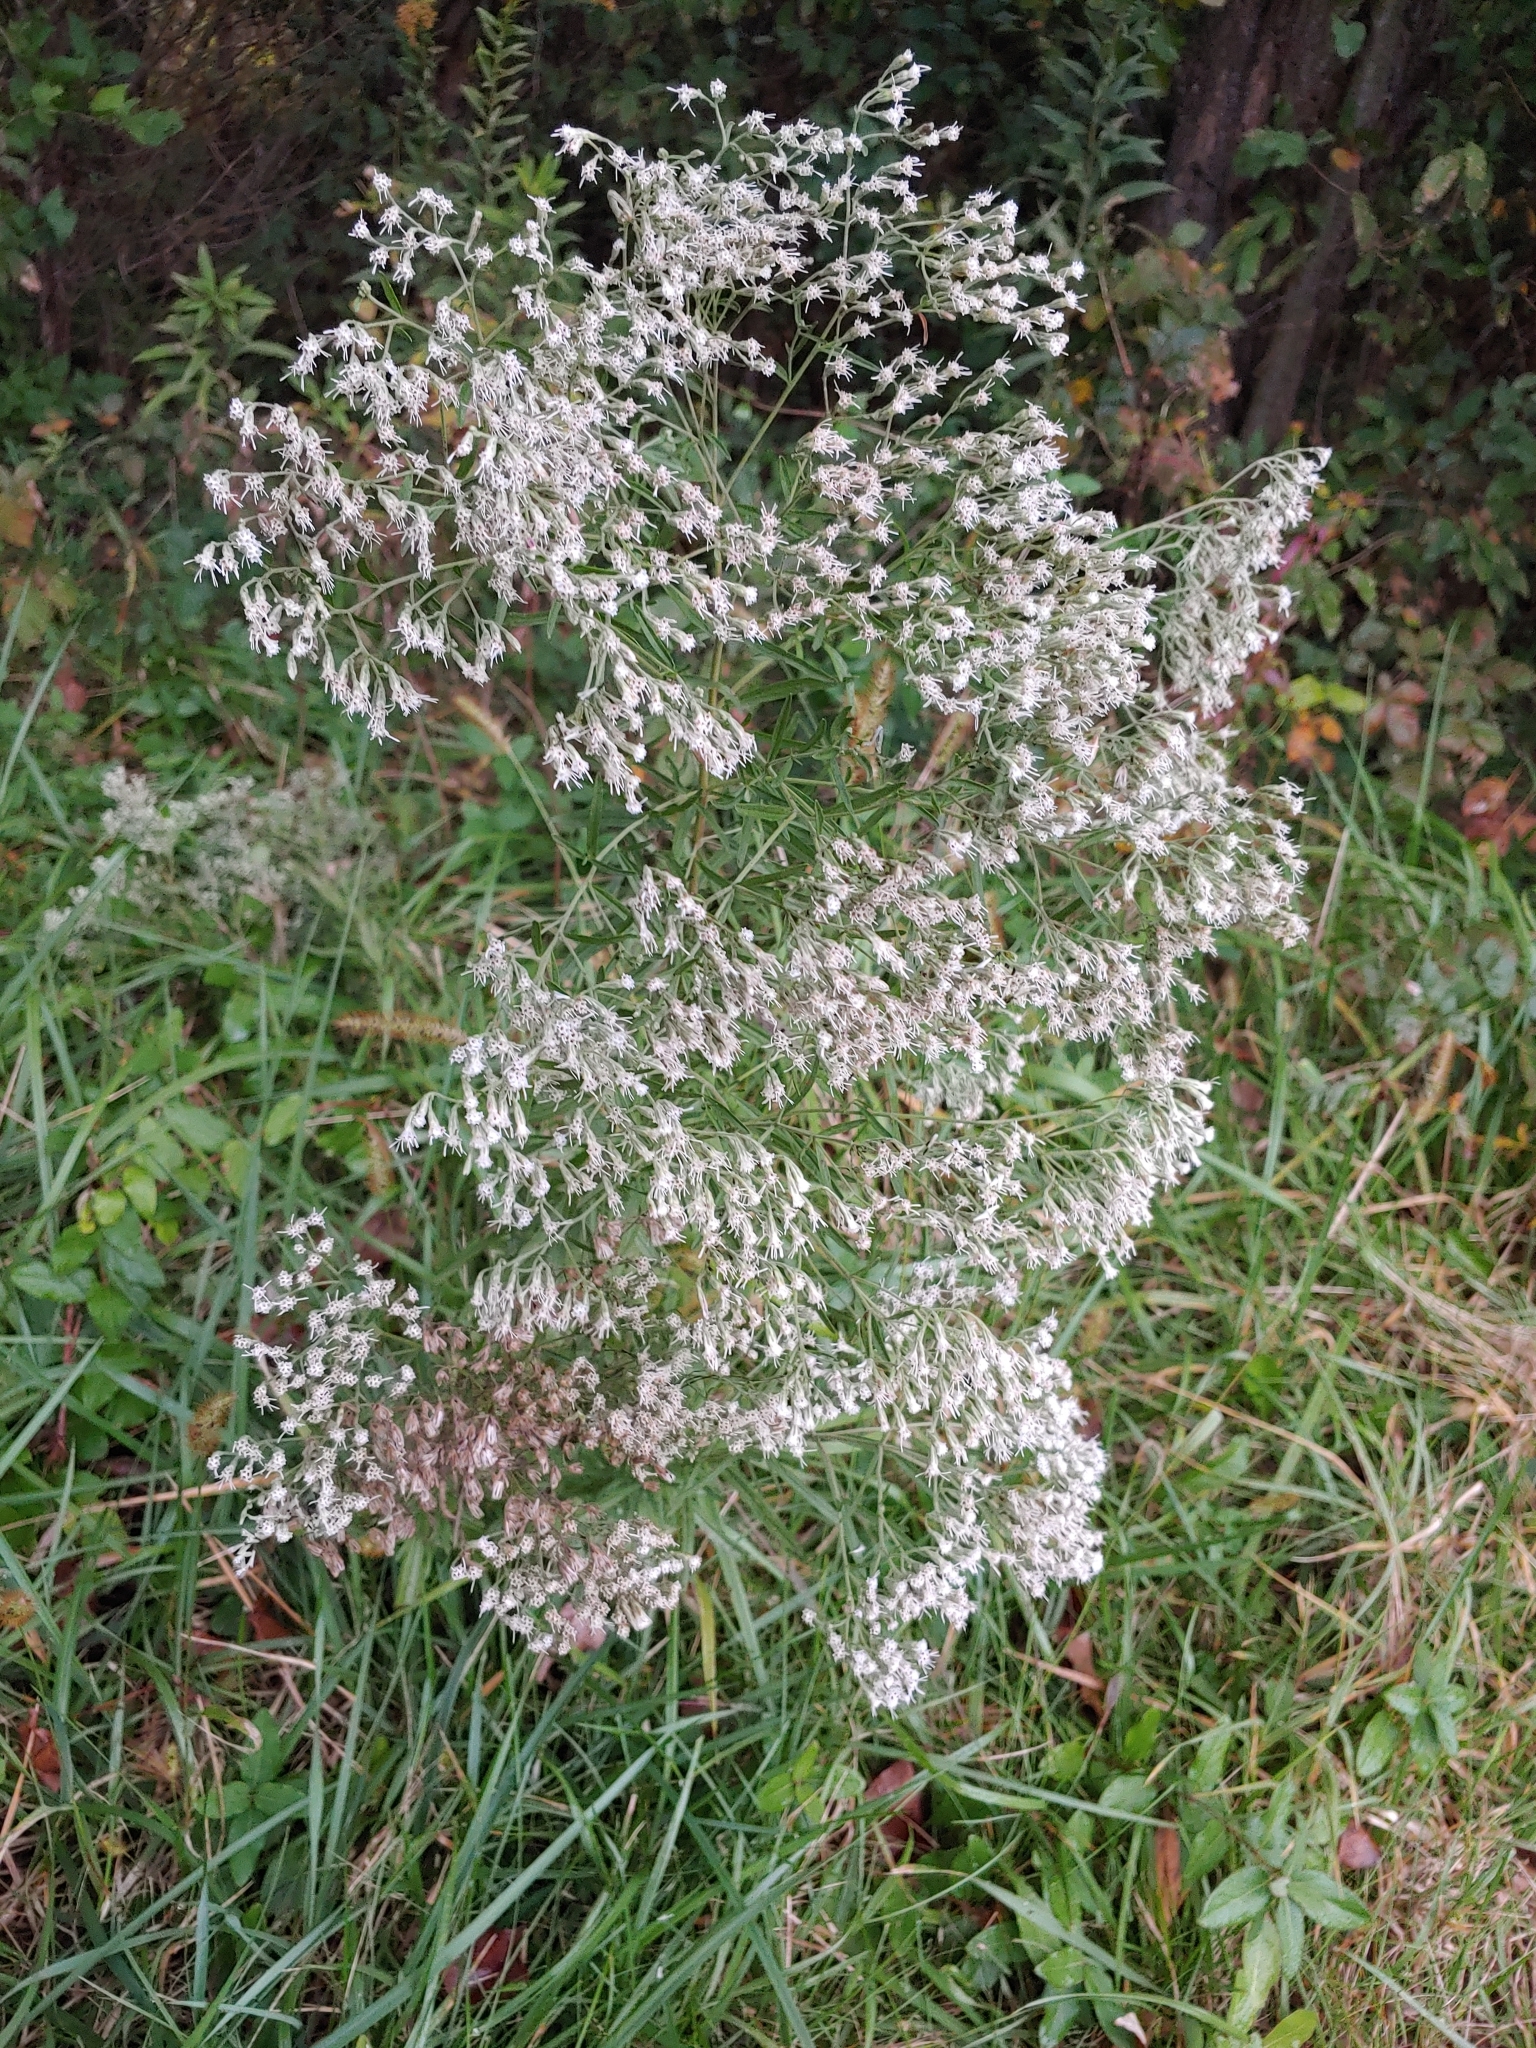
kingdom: Plantae
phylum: Tracheophyta
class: Magnoliopsida
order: Asterales
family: Asteraceae
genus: Eupatorium
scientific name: Eupatorium serotinum
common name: Late boneset
